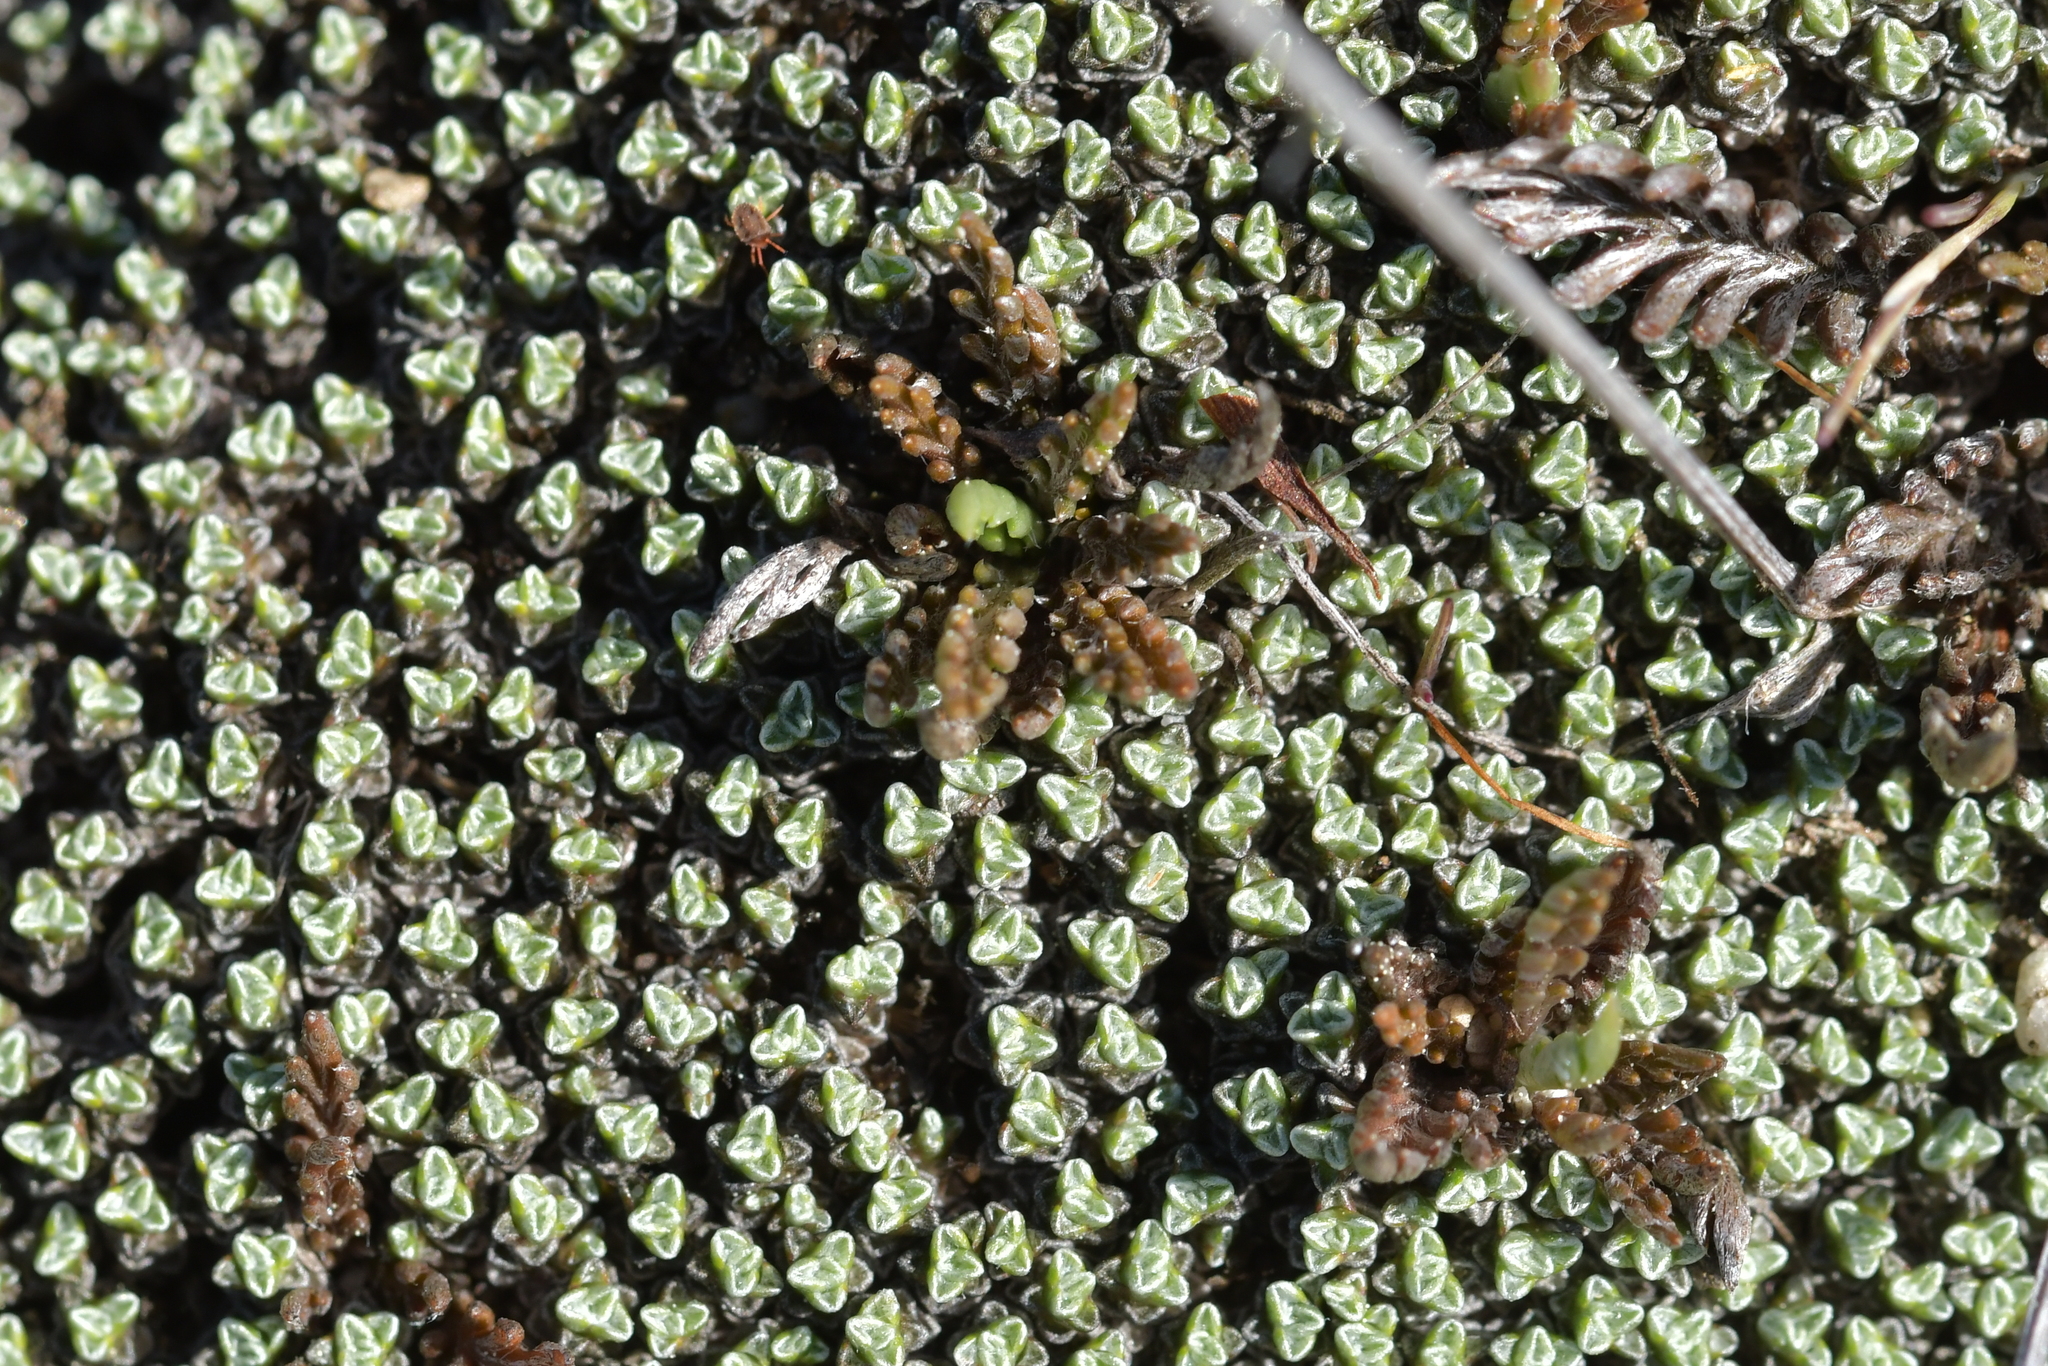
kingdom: Plantae
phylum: Tracheophyta
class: Magnoliopsida
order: Asterales
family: Asteraceae
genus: Leptinella
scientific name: Leptinella conjuncta
